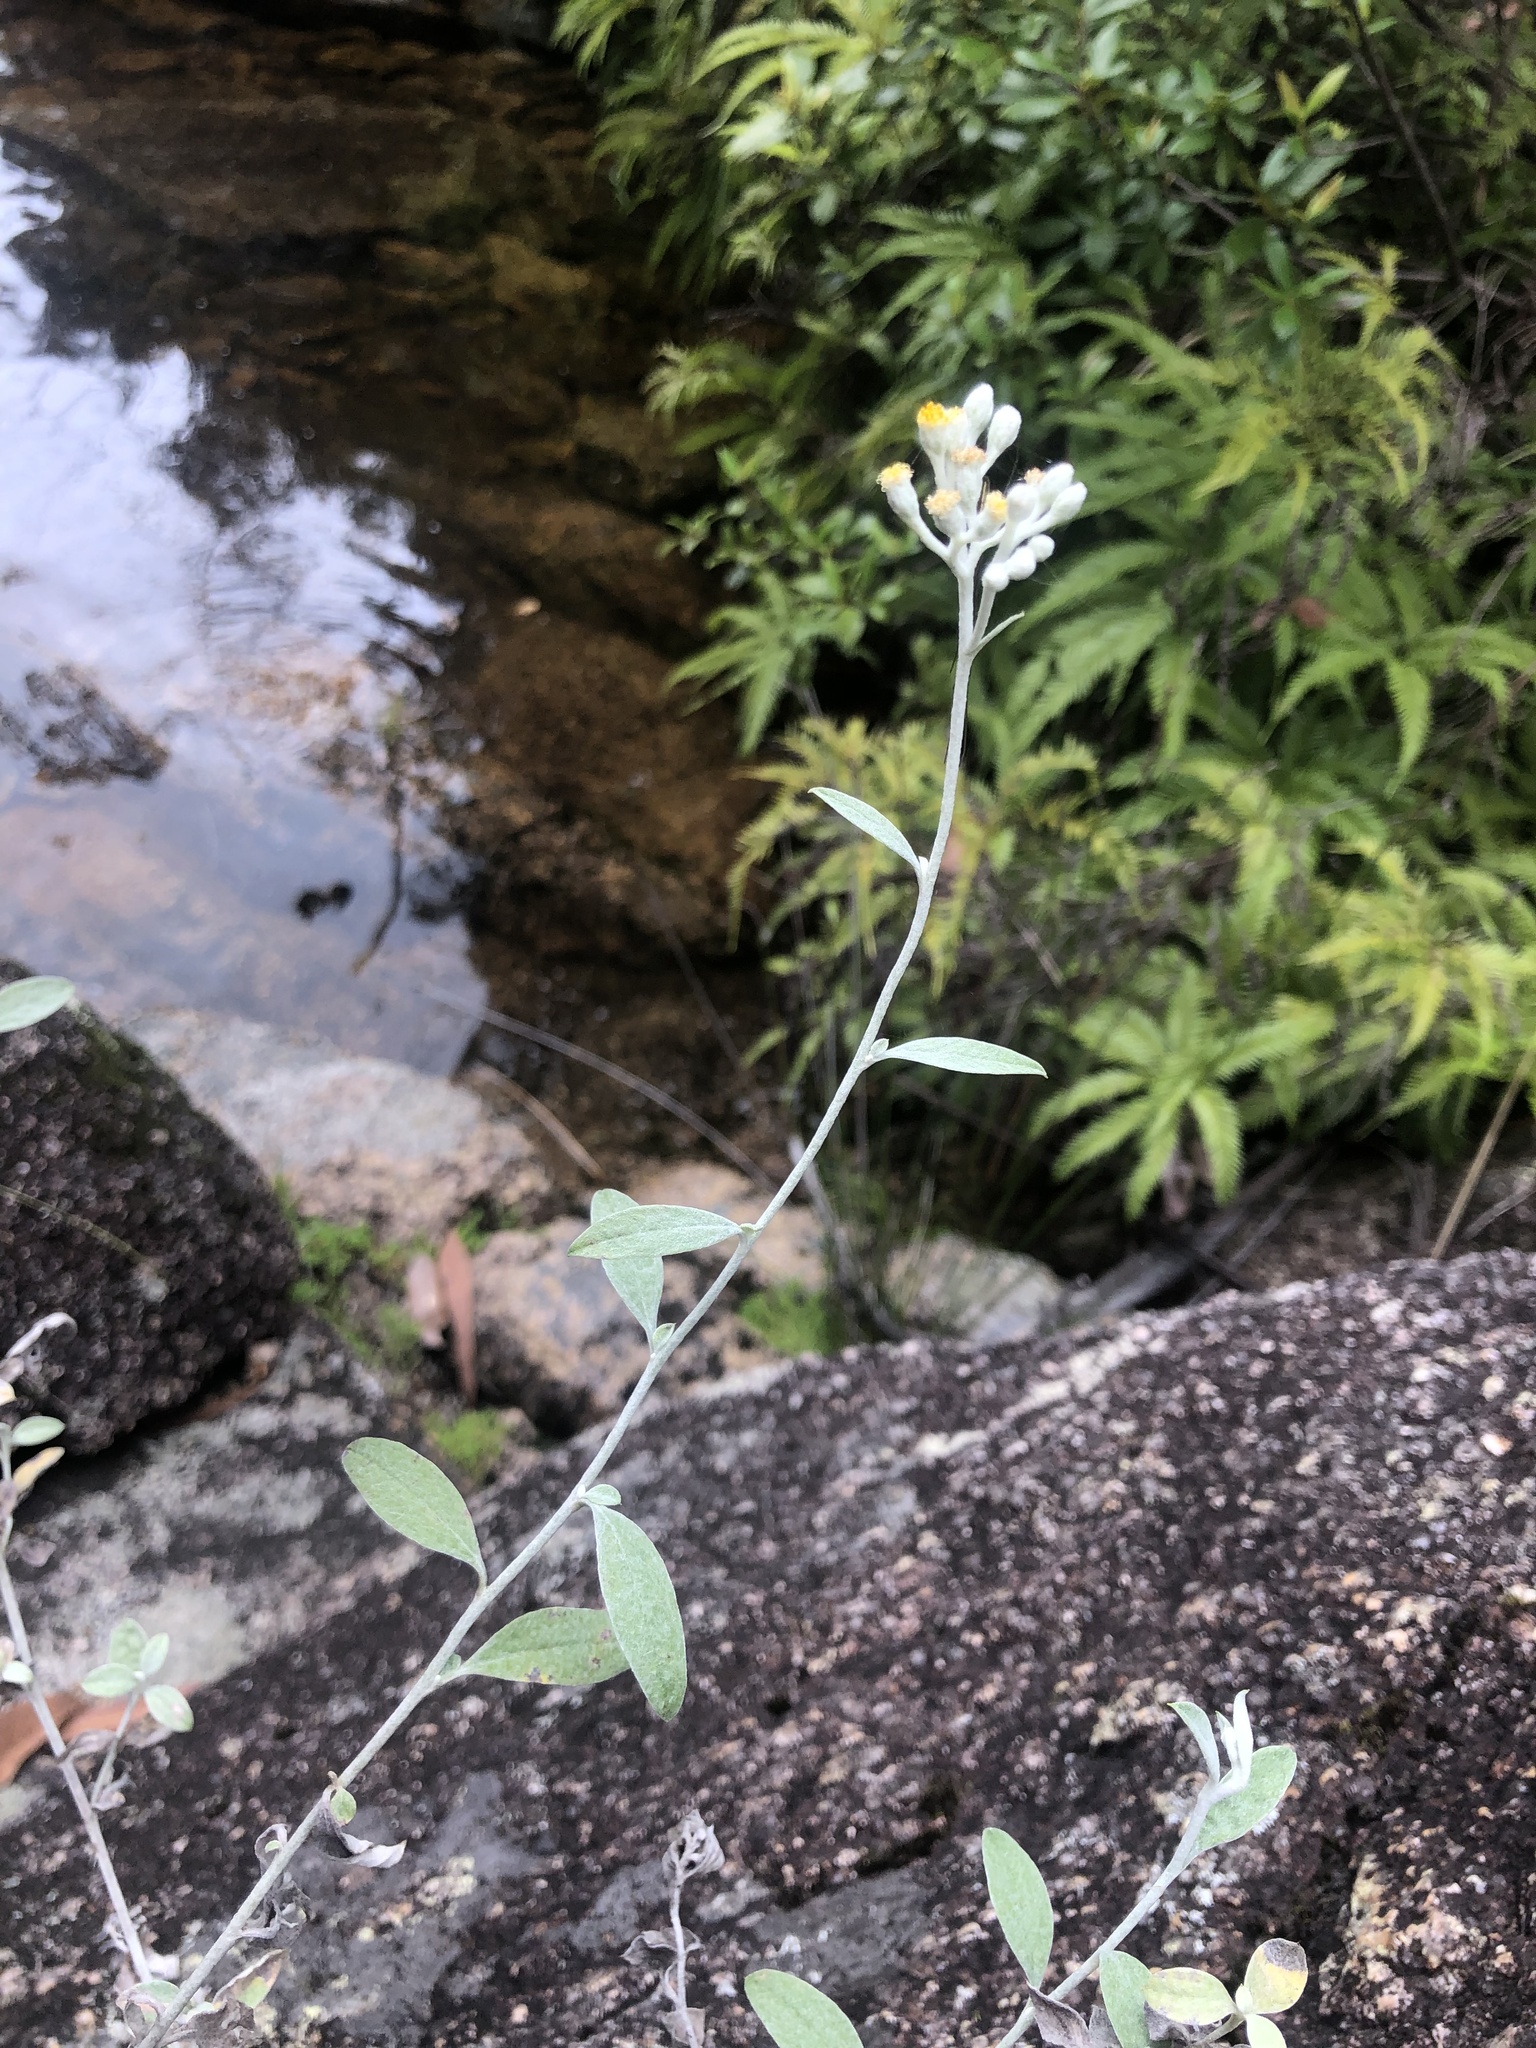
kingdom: Plantae
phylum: Tracheophyta
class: Magnoliopsida
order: Asterales
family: Asteraceae
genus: Ozothamnus
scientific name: Ozothamnus whitei
